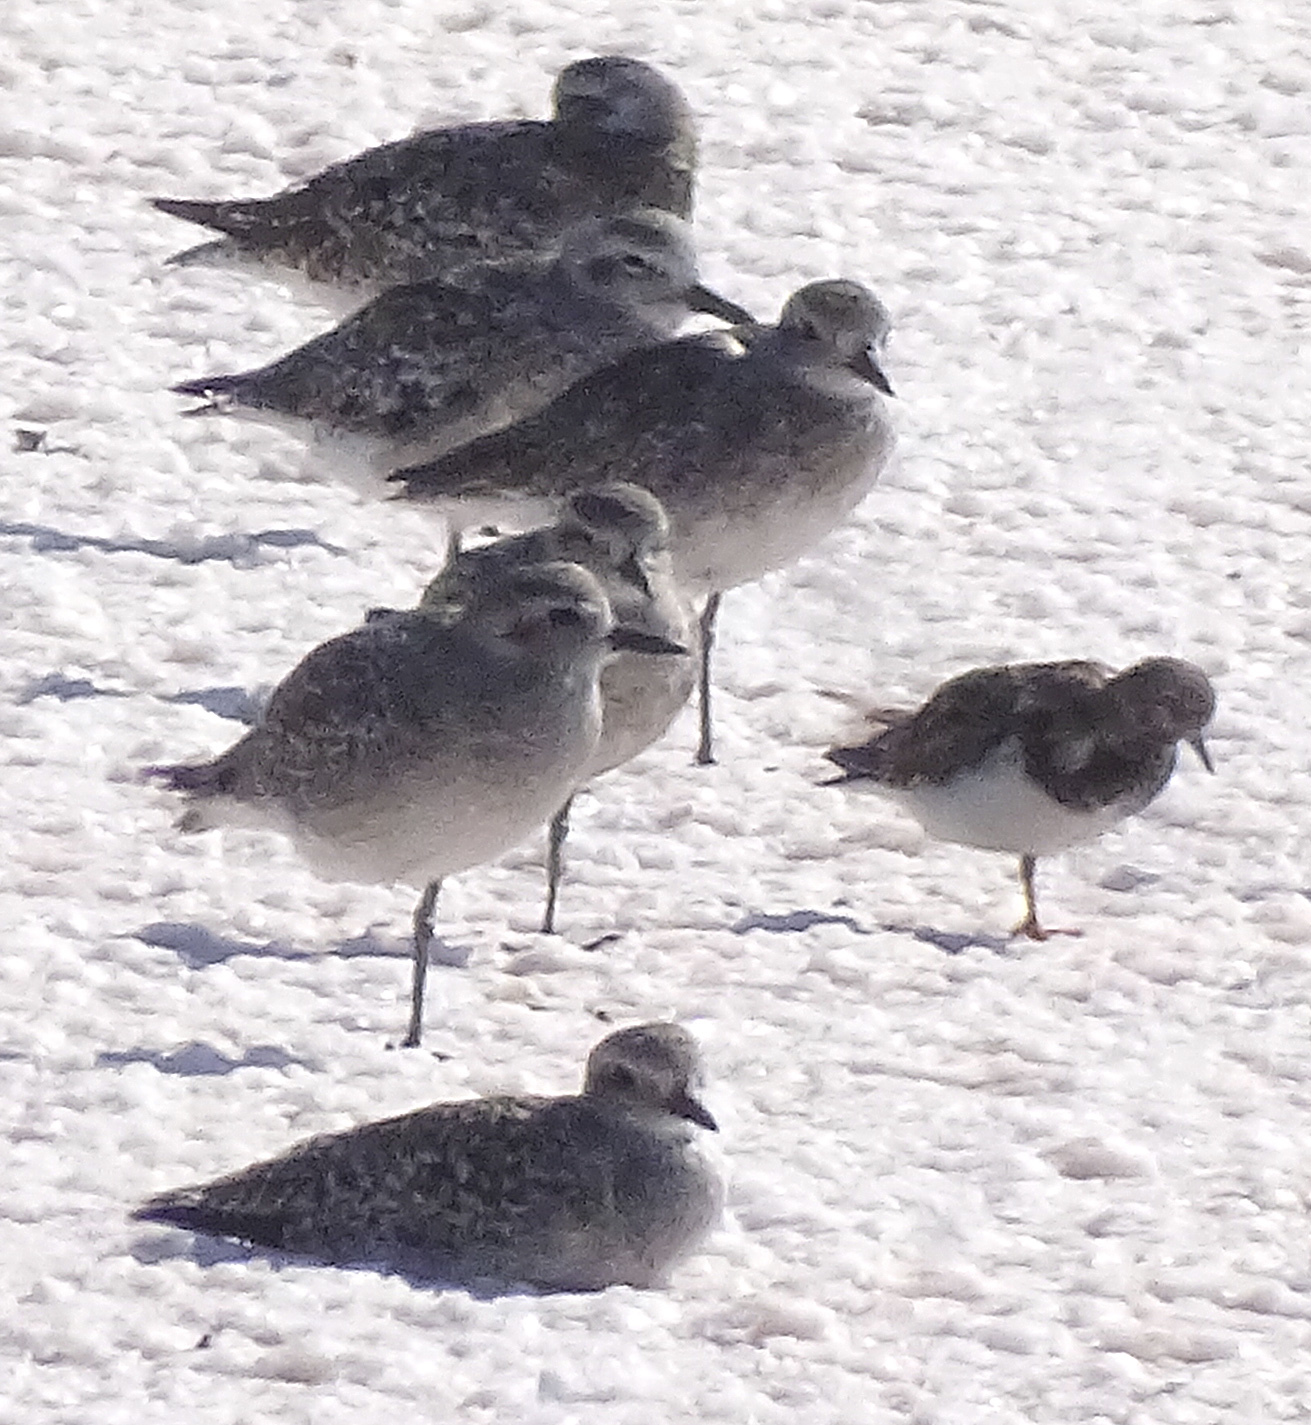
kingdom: Animalia
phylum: Chordata
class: Aves
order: Charadriiformes
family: Scolopacidae
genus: Arenaria
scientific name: Arenaria interpres
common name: Ruddy turnstone
